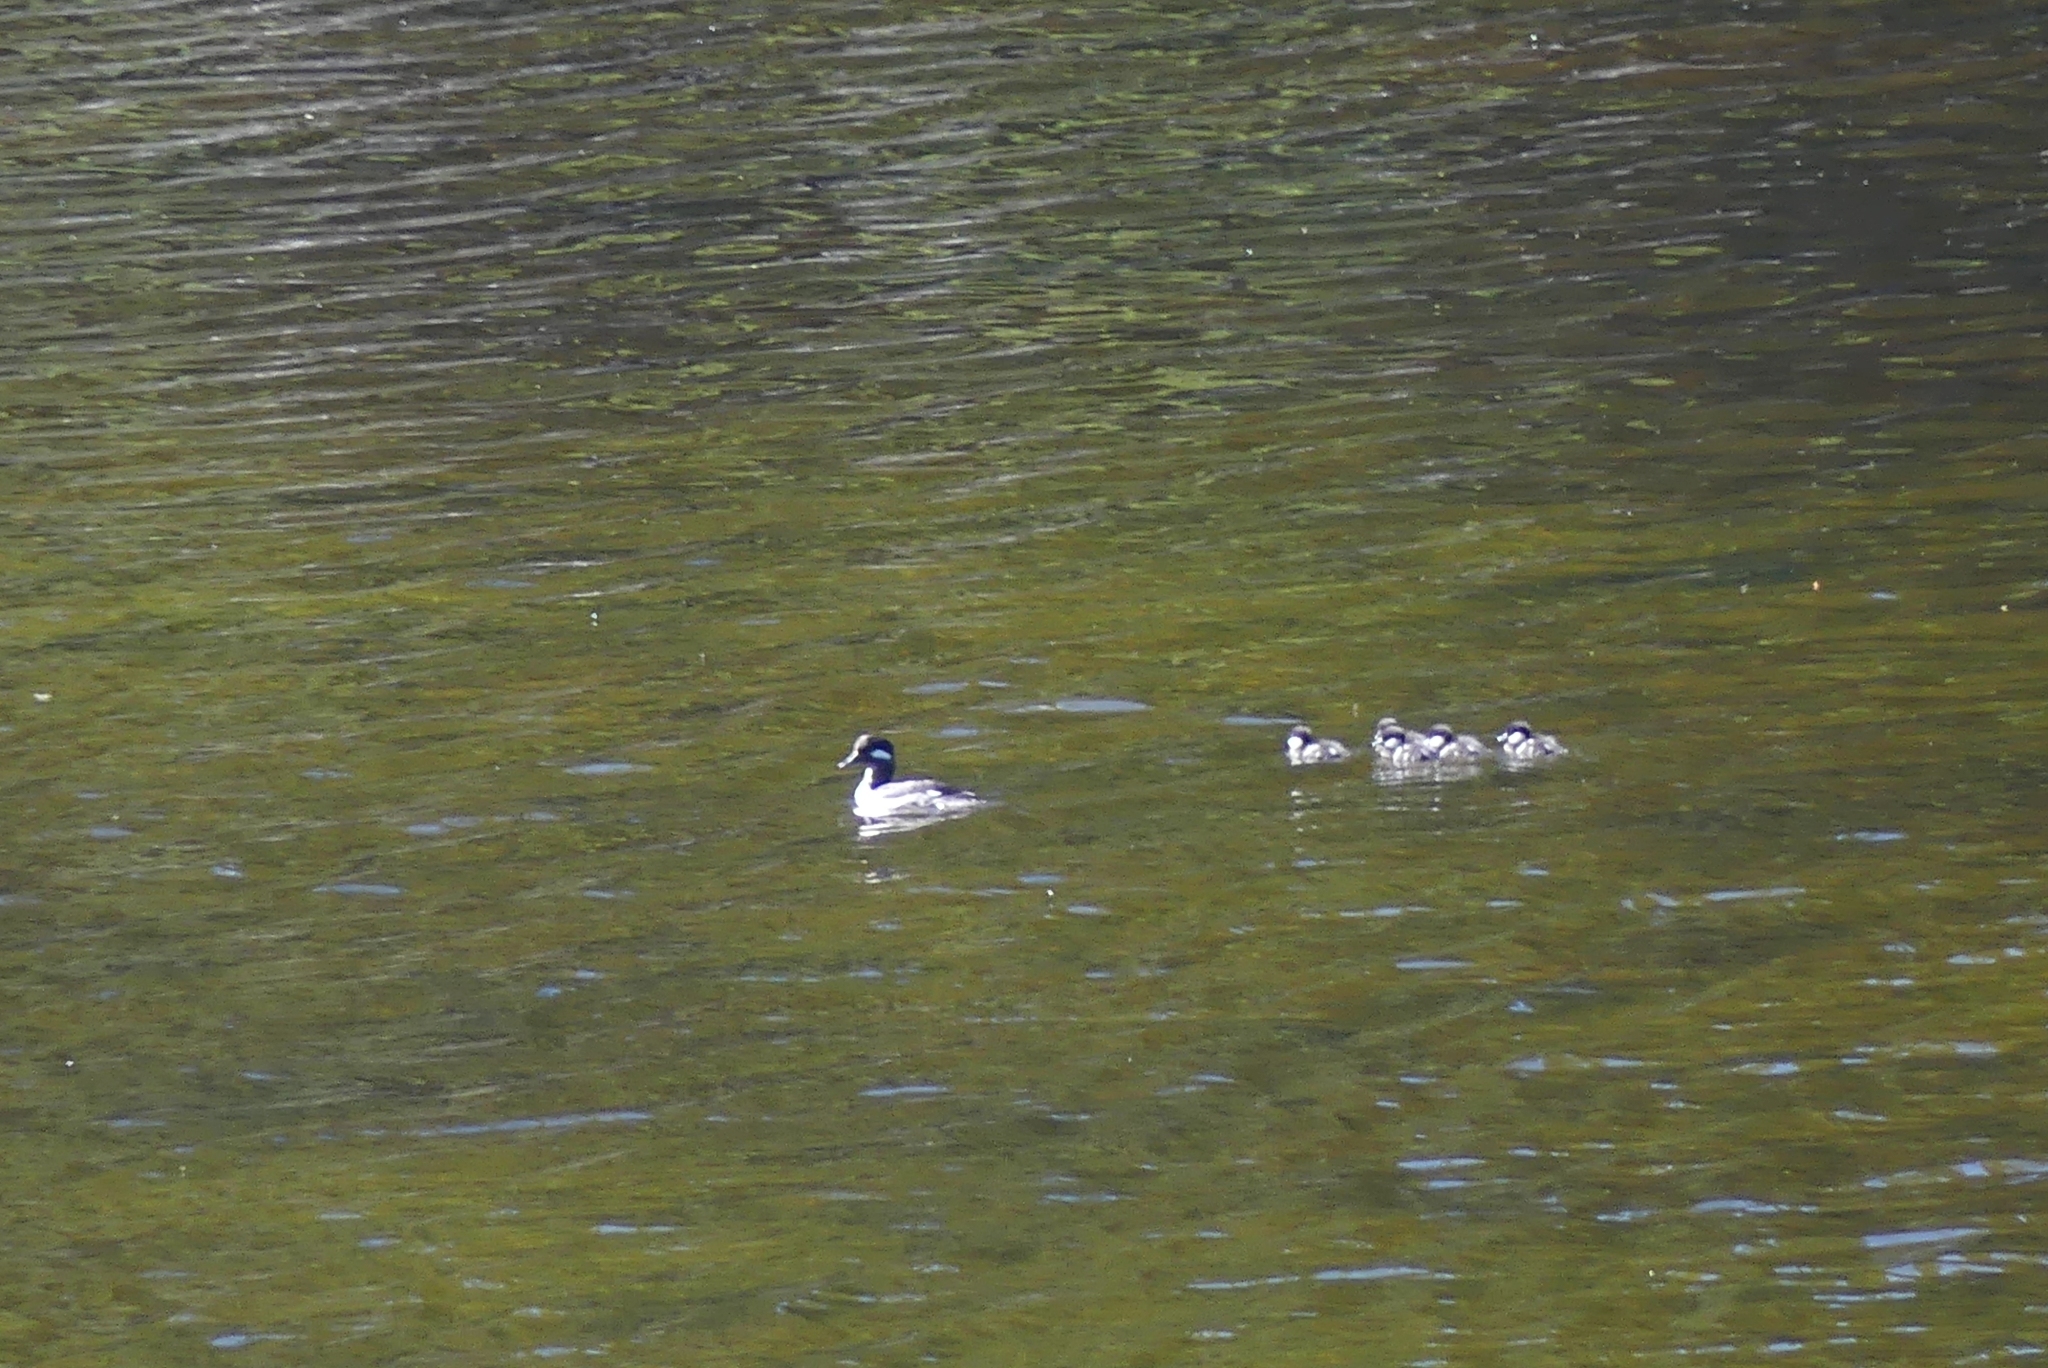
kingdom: Animalia
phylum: Chordata
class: Aves
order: Anseriformes
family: Anatidae
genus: Bucephala
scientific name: Bucephala albeola
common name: Bufflehead
